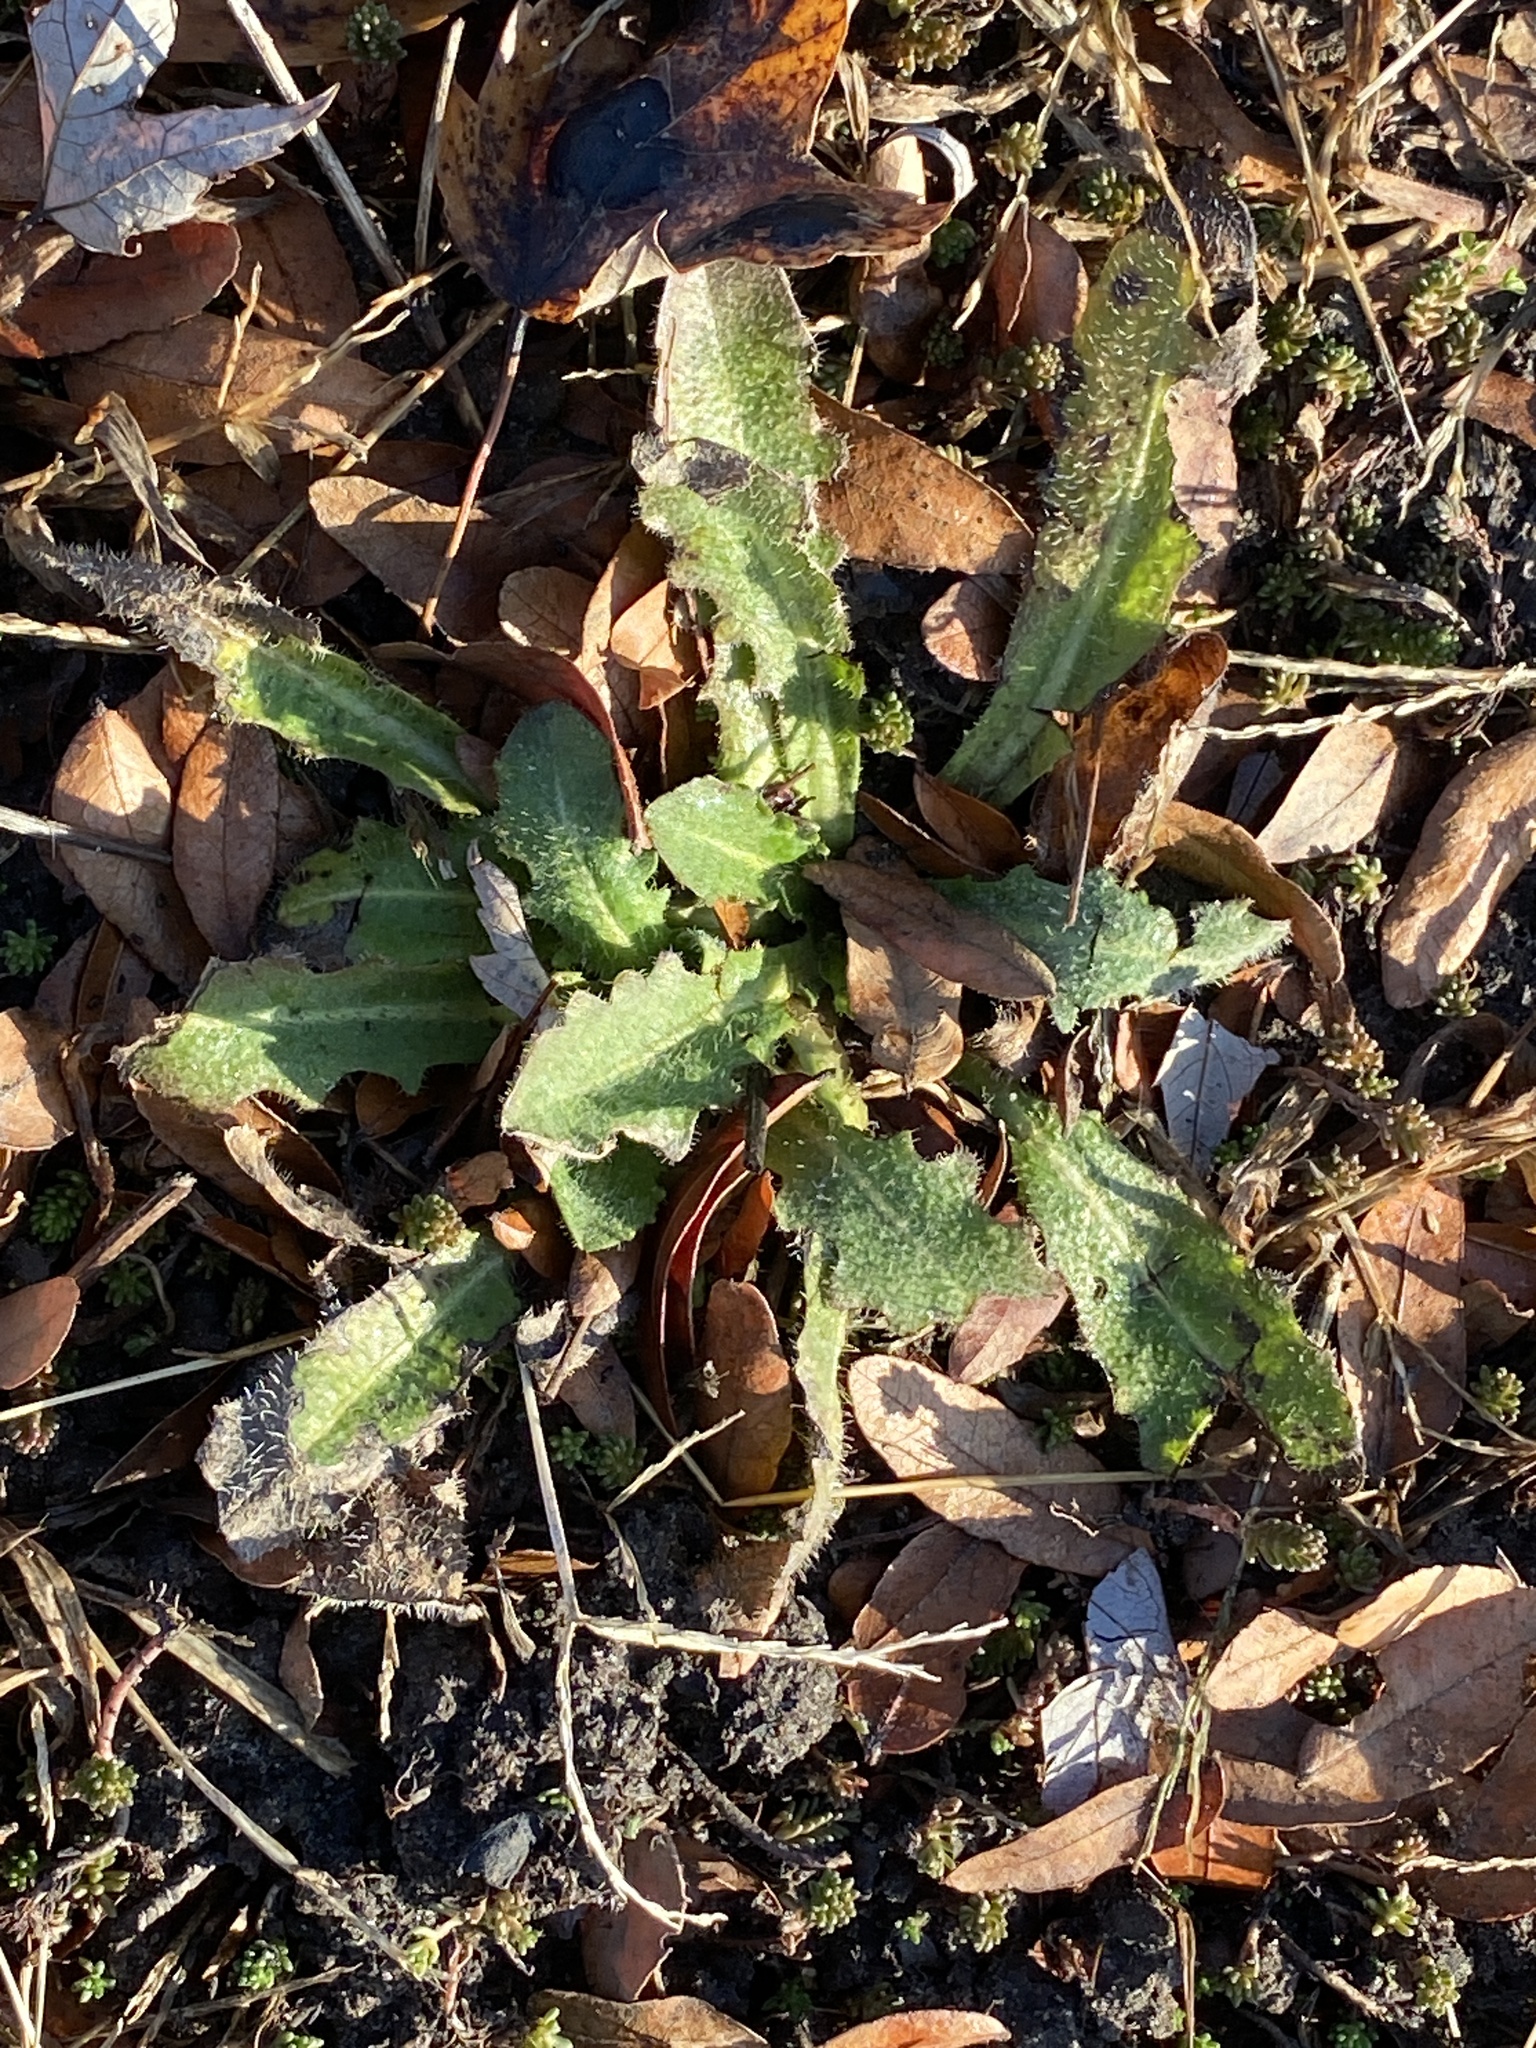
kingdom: Plantae
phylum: Tracheophyta
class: Magnoliopsida
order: Asterales
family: Asteraceae
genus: Hypochaeris
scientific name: Hypochaeris radicata
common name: Flatweed
